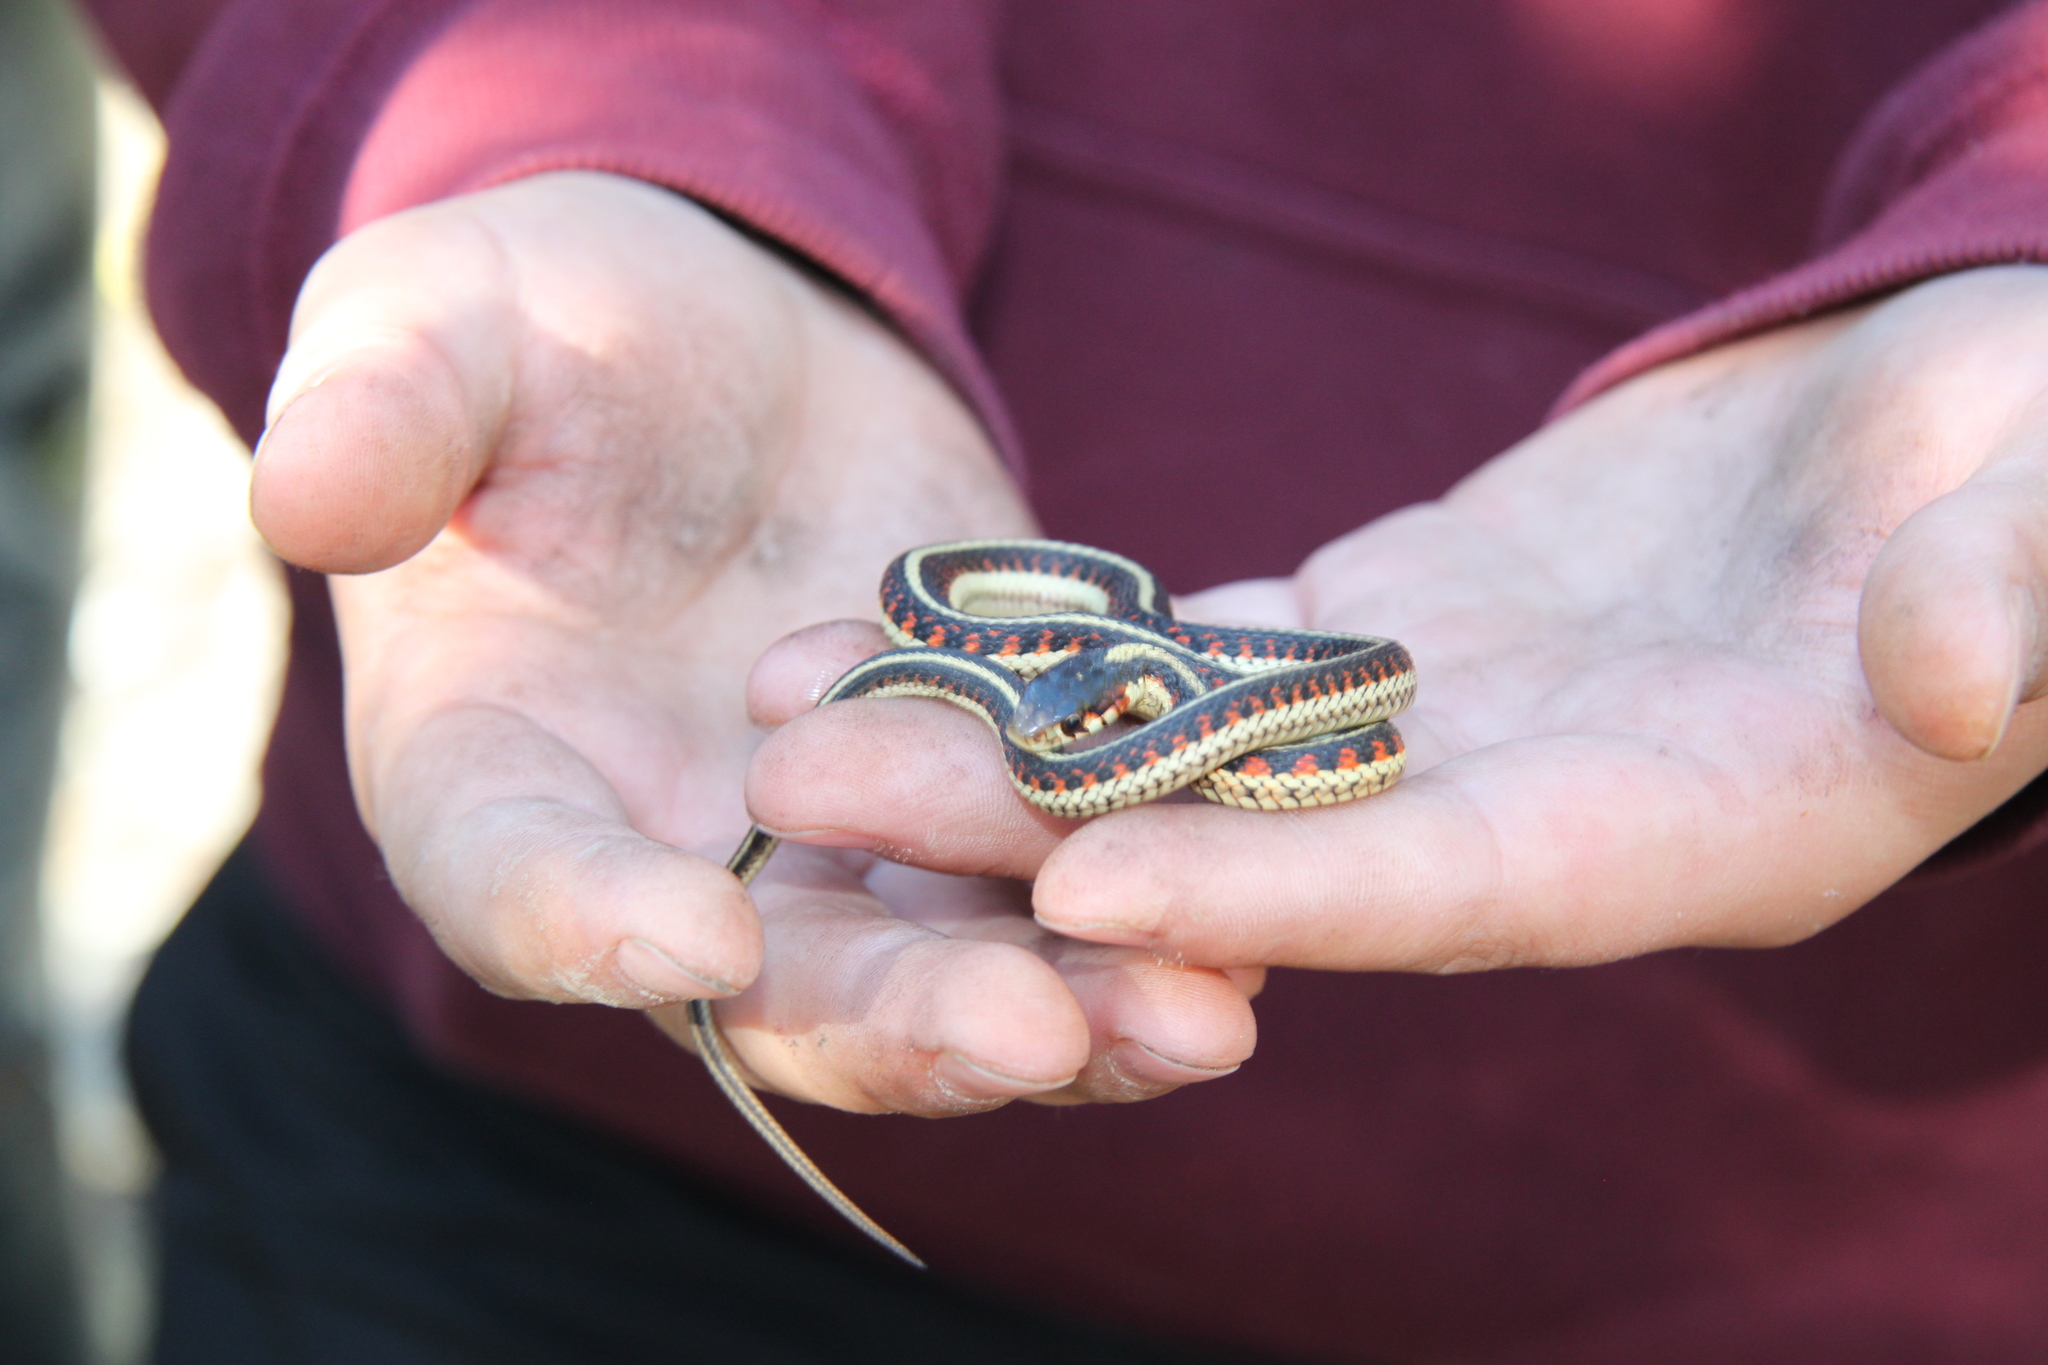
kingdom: Animalia
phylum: Chordata
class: Squamata
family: Colubridae
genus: Thamnophis
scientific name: Thamnophis sirtalis
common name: Common garter snake
